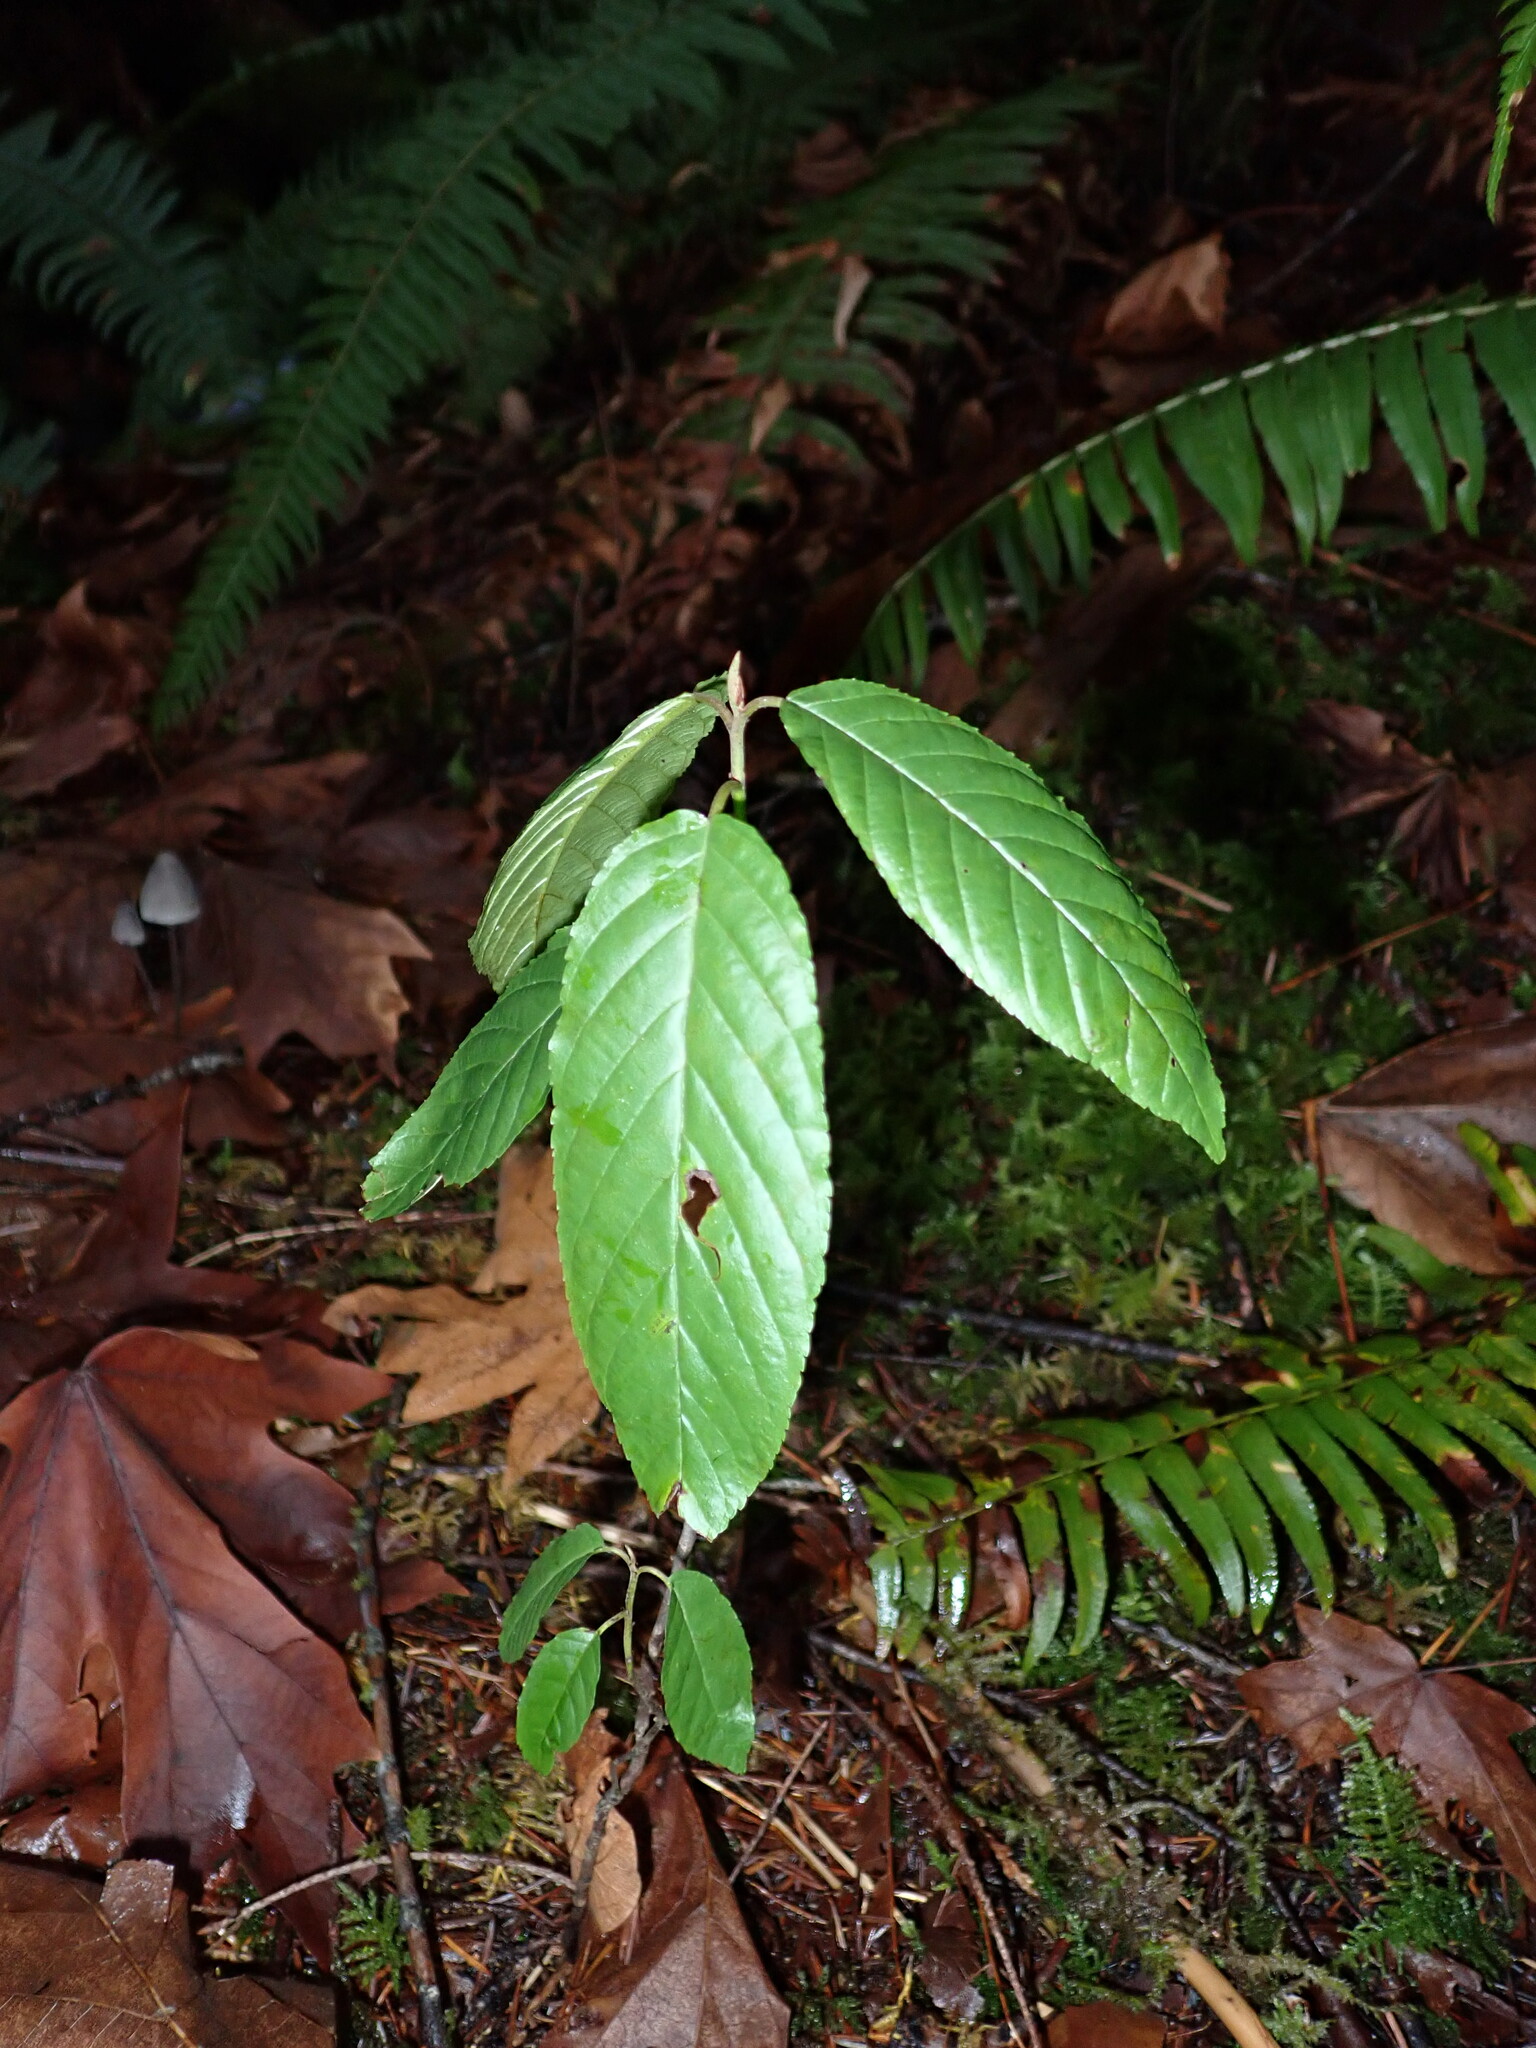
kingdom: Plantae
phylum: Tracheophyta
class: Magnoliopsida
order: Rosales
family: Rhamnaceae
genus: Frangula
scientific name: Frangula purshiana
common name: Cascara buckthorn
